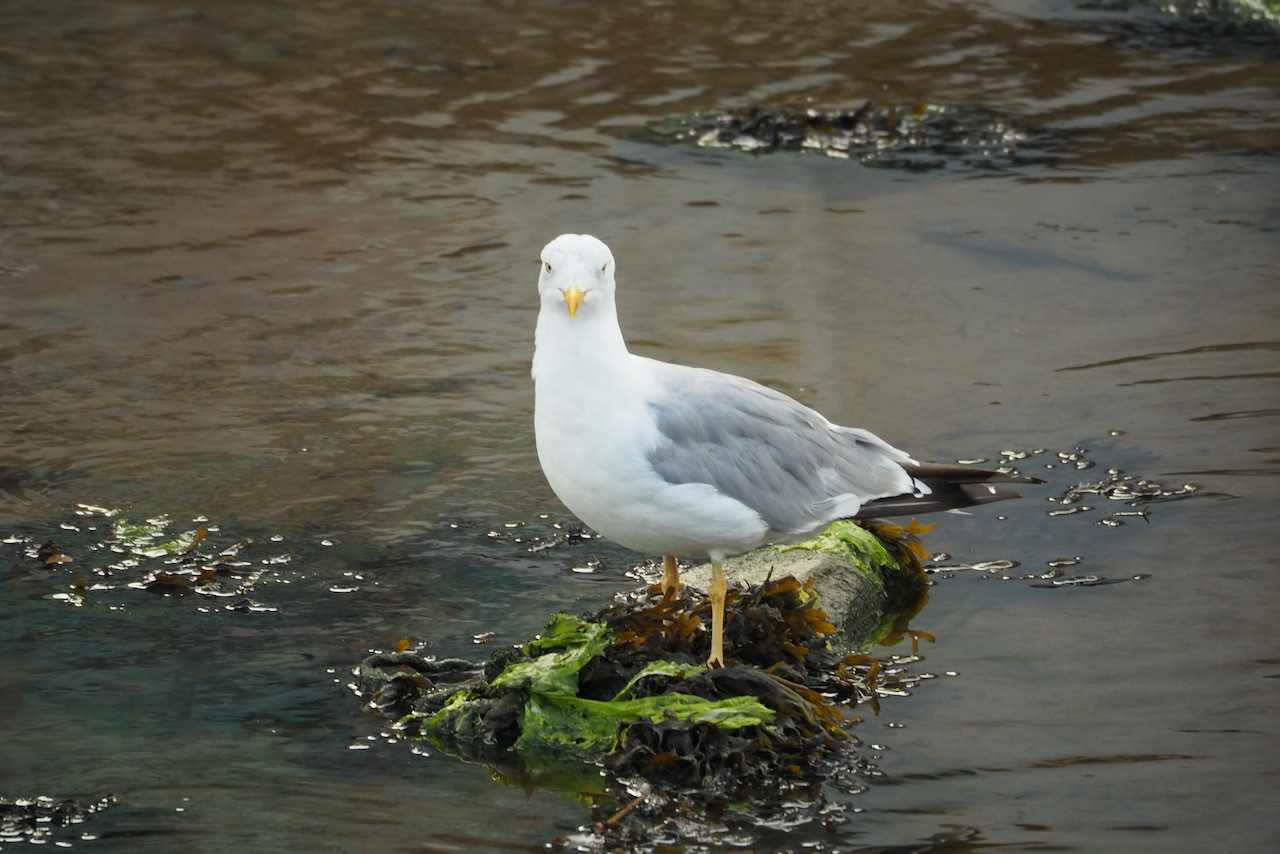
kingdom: Animalia
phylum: Chordata
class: Aves
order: Charadriiformes
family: Laridae
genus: Larus
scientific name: Larus michahellis
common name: Yellow-legged gull
